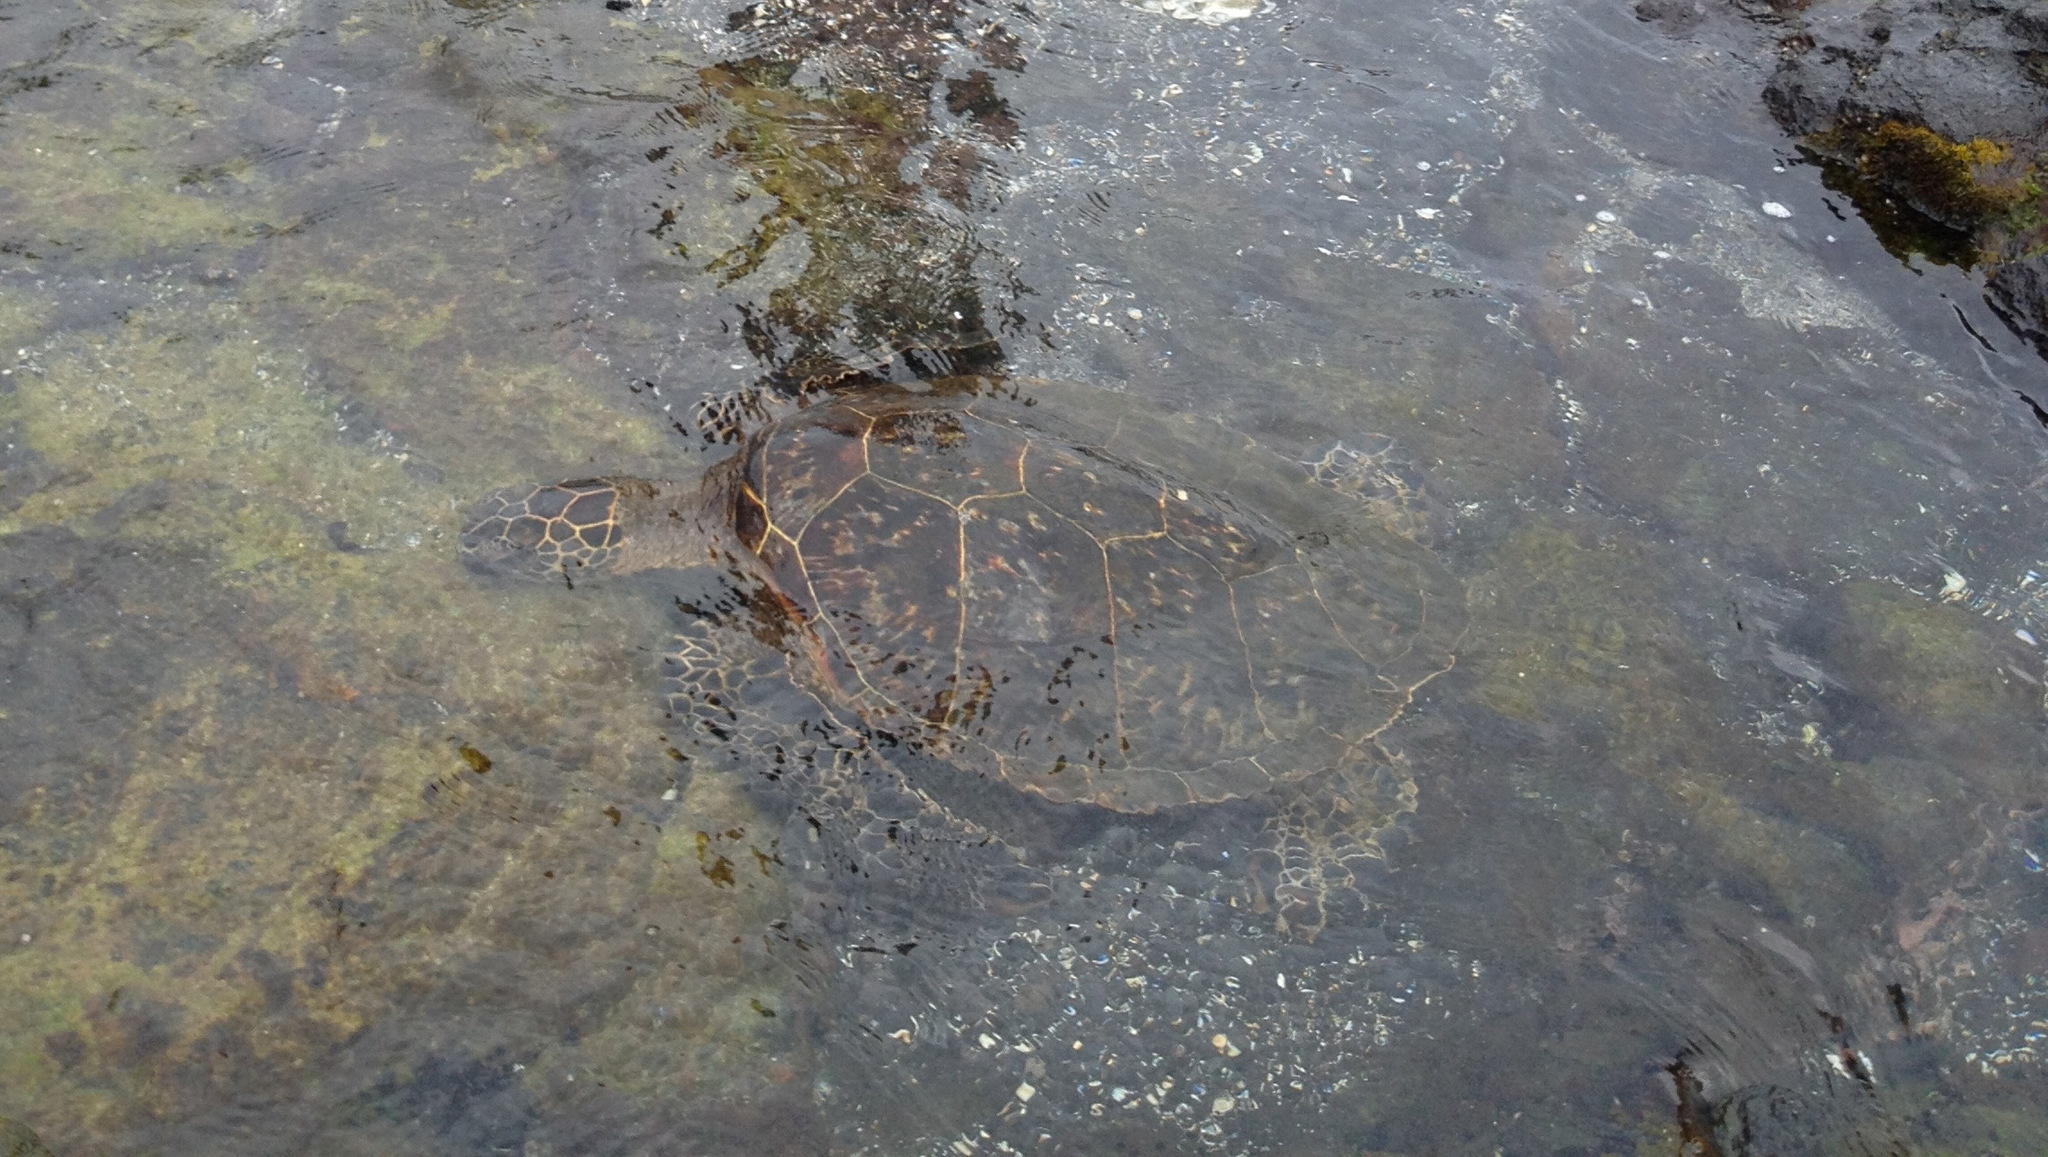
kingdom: Animalia
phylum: Chordata
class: Testudines
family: Cheloniidae
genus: Chelonia
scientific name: Chelonia mydas
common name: Green turtle
